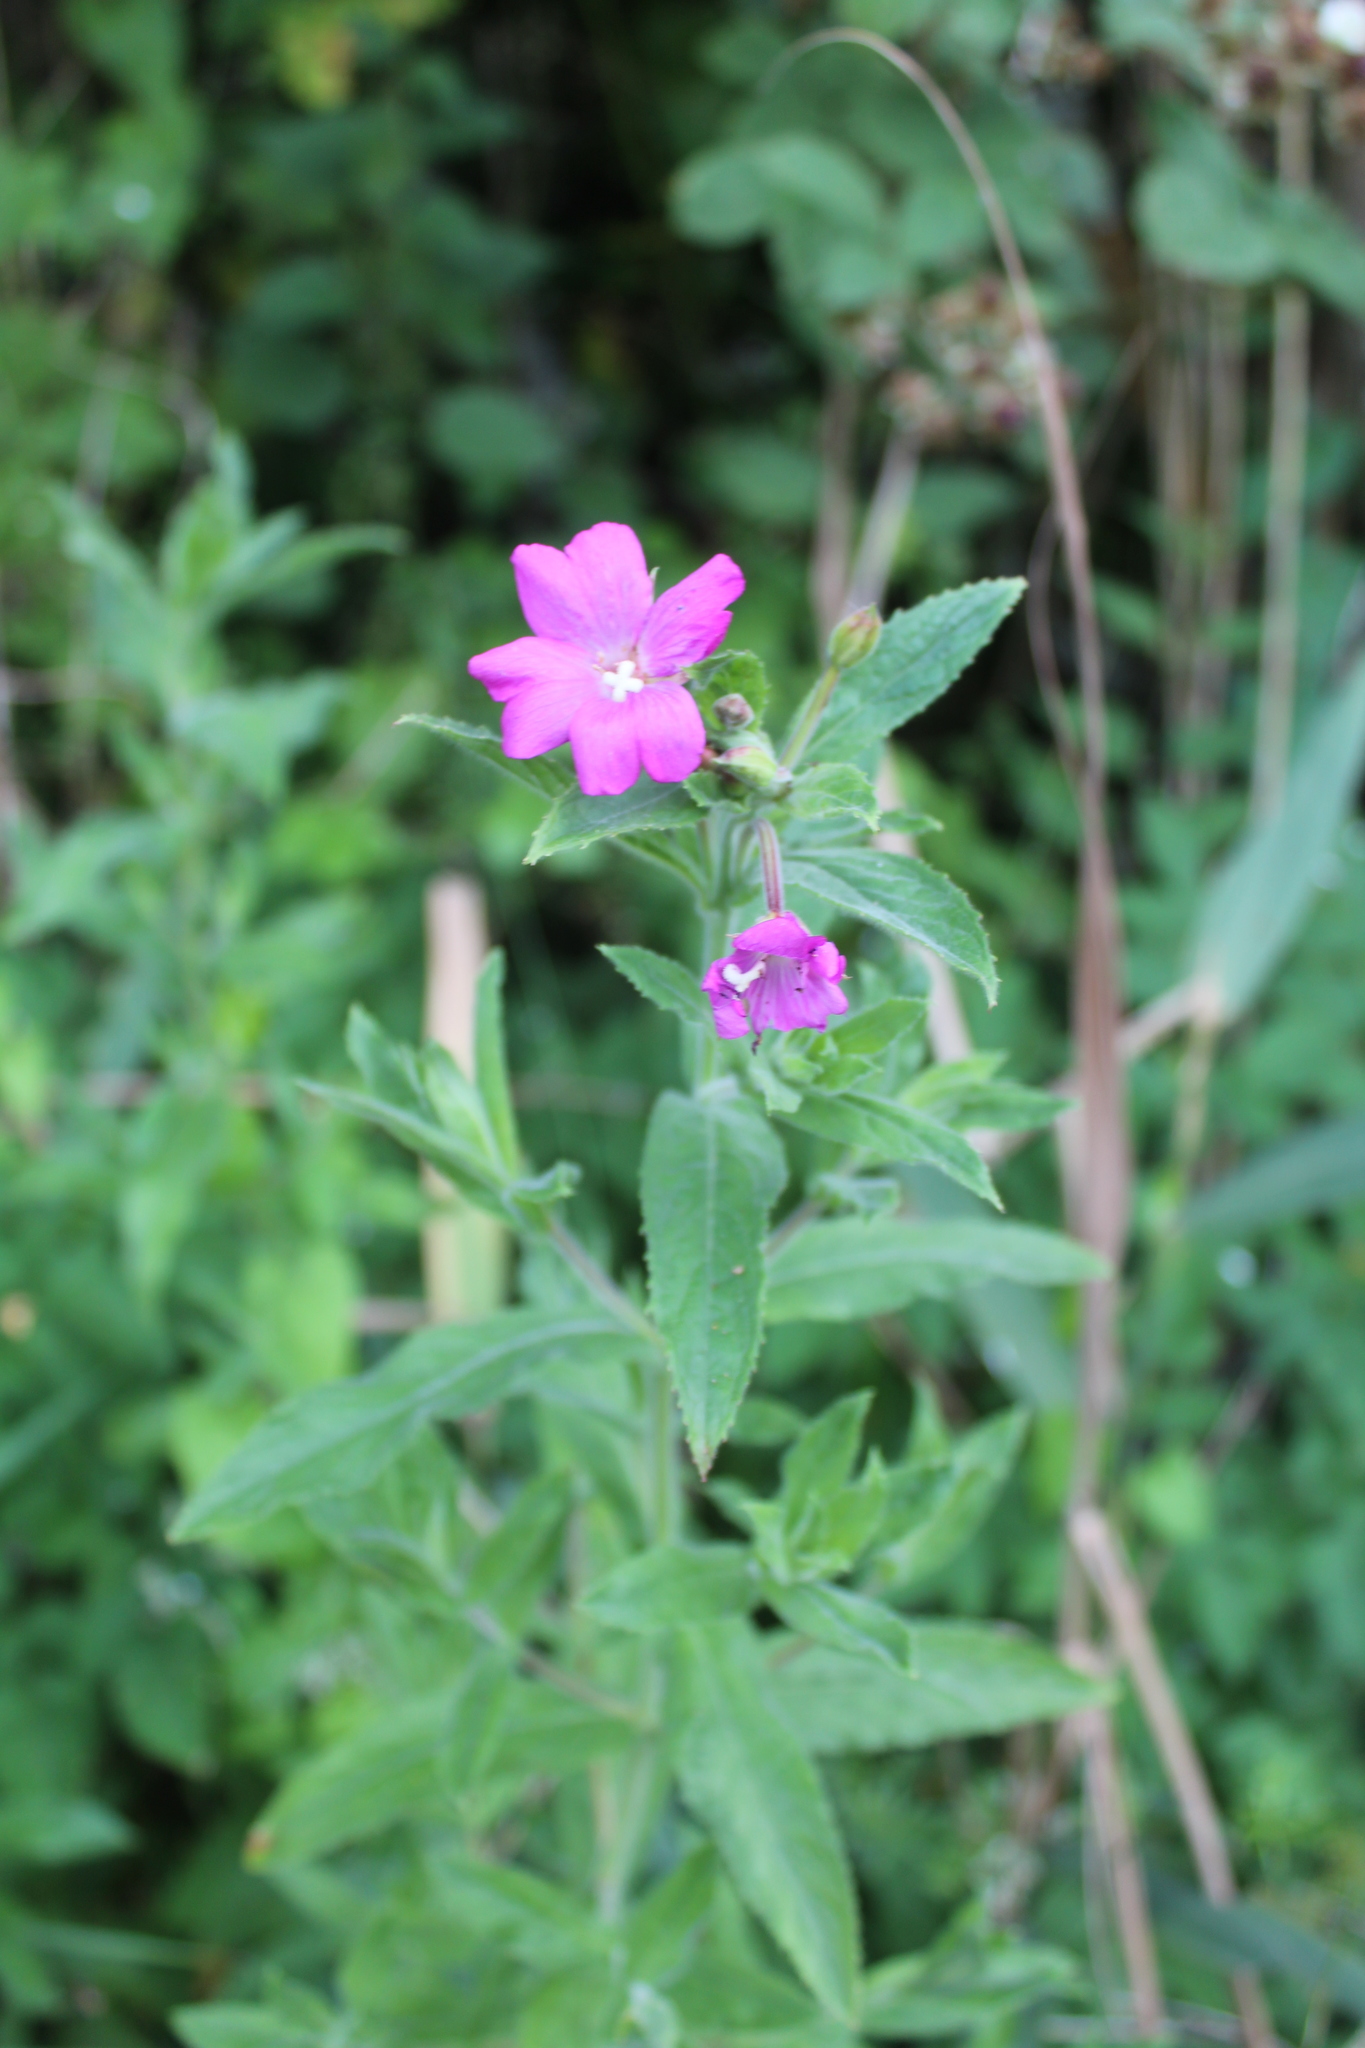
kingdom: Plantae
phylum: Tracheophyta
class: Magnoliopsida
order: Myrtales
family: Onagraceae
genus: Epilobium
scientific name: Epilobium hirsutum
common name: Great willowherb
